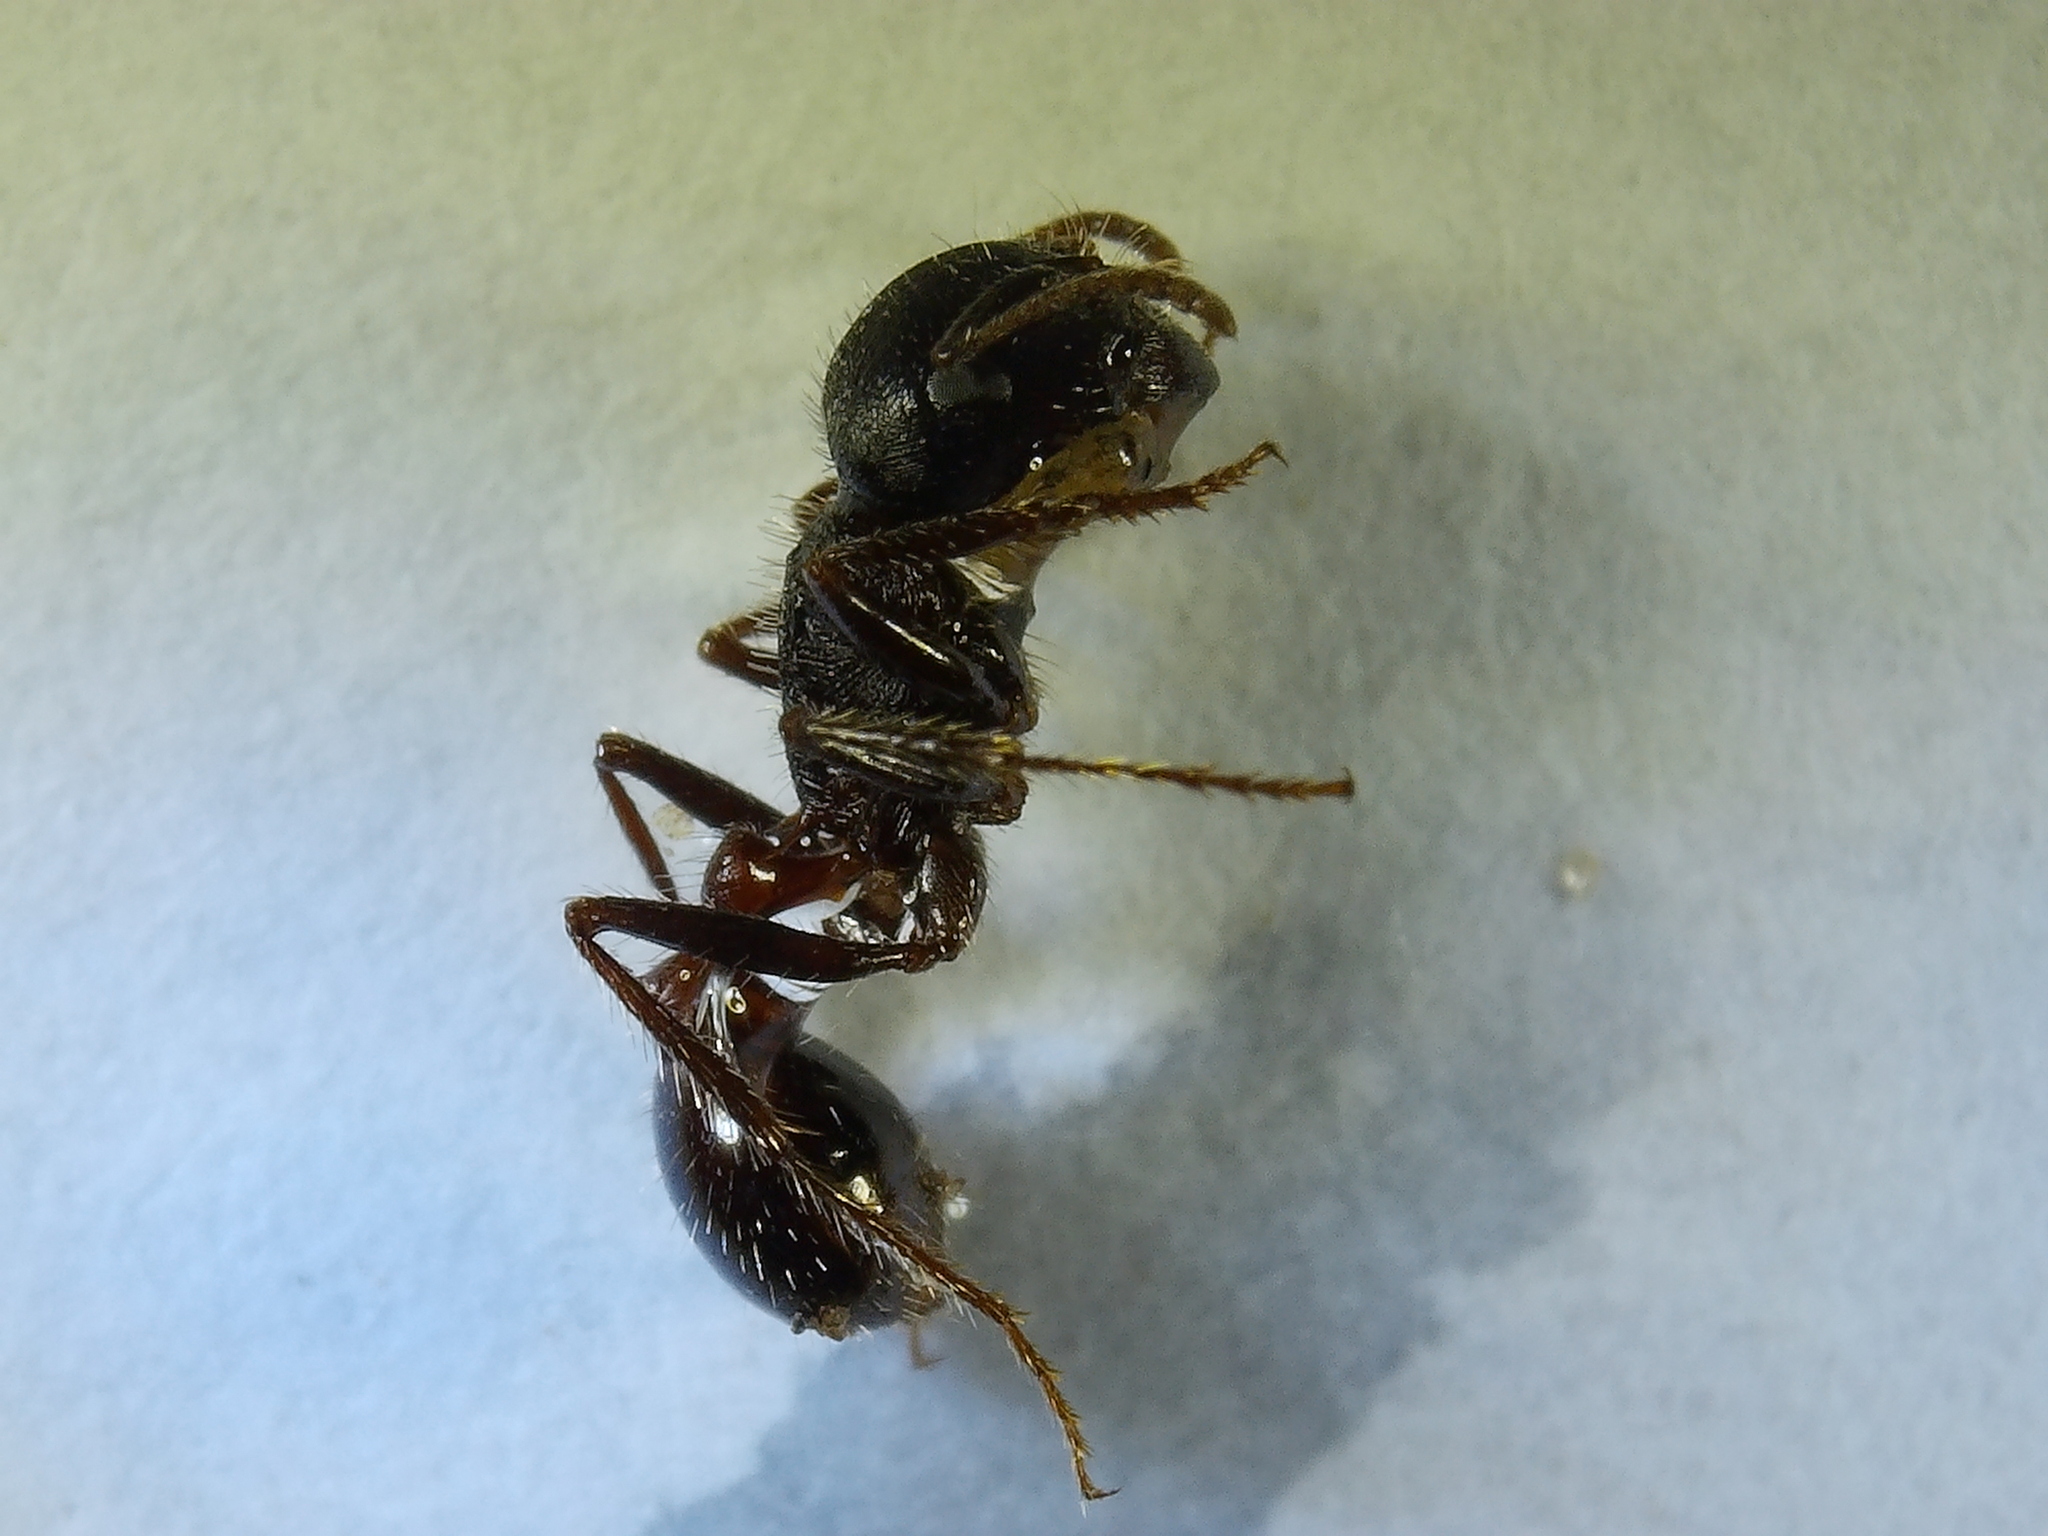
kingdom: Animalia
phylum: Arthropoda
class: Insecta
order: Hymenoptera
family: Formicidae
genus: Pogonomyrmex
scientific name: Pogonomyrmex rugosus
